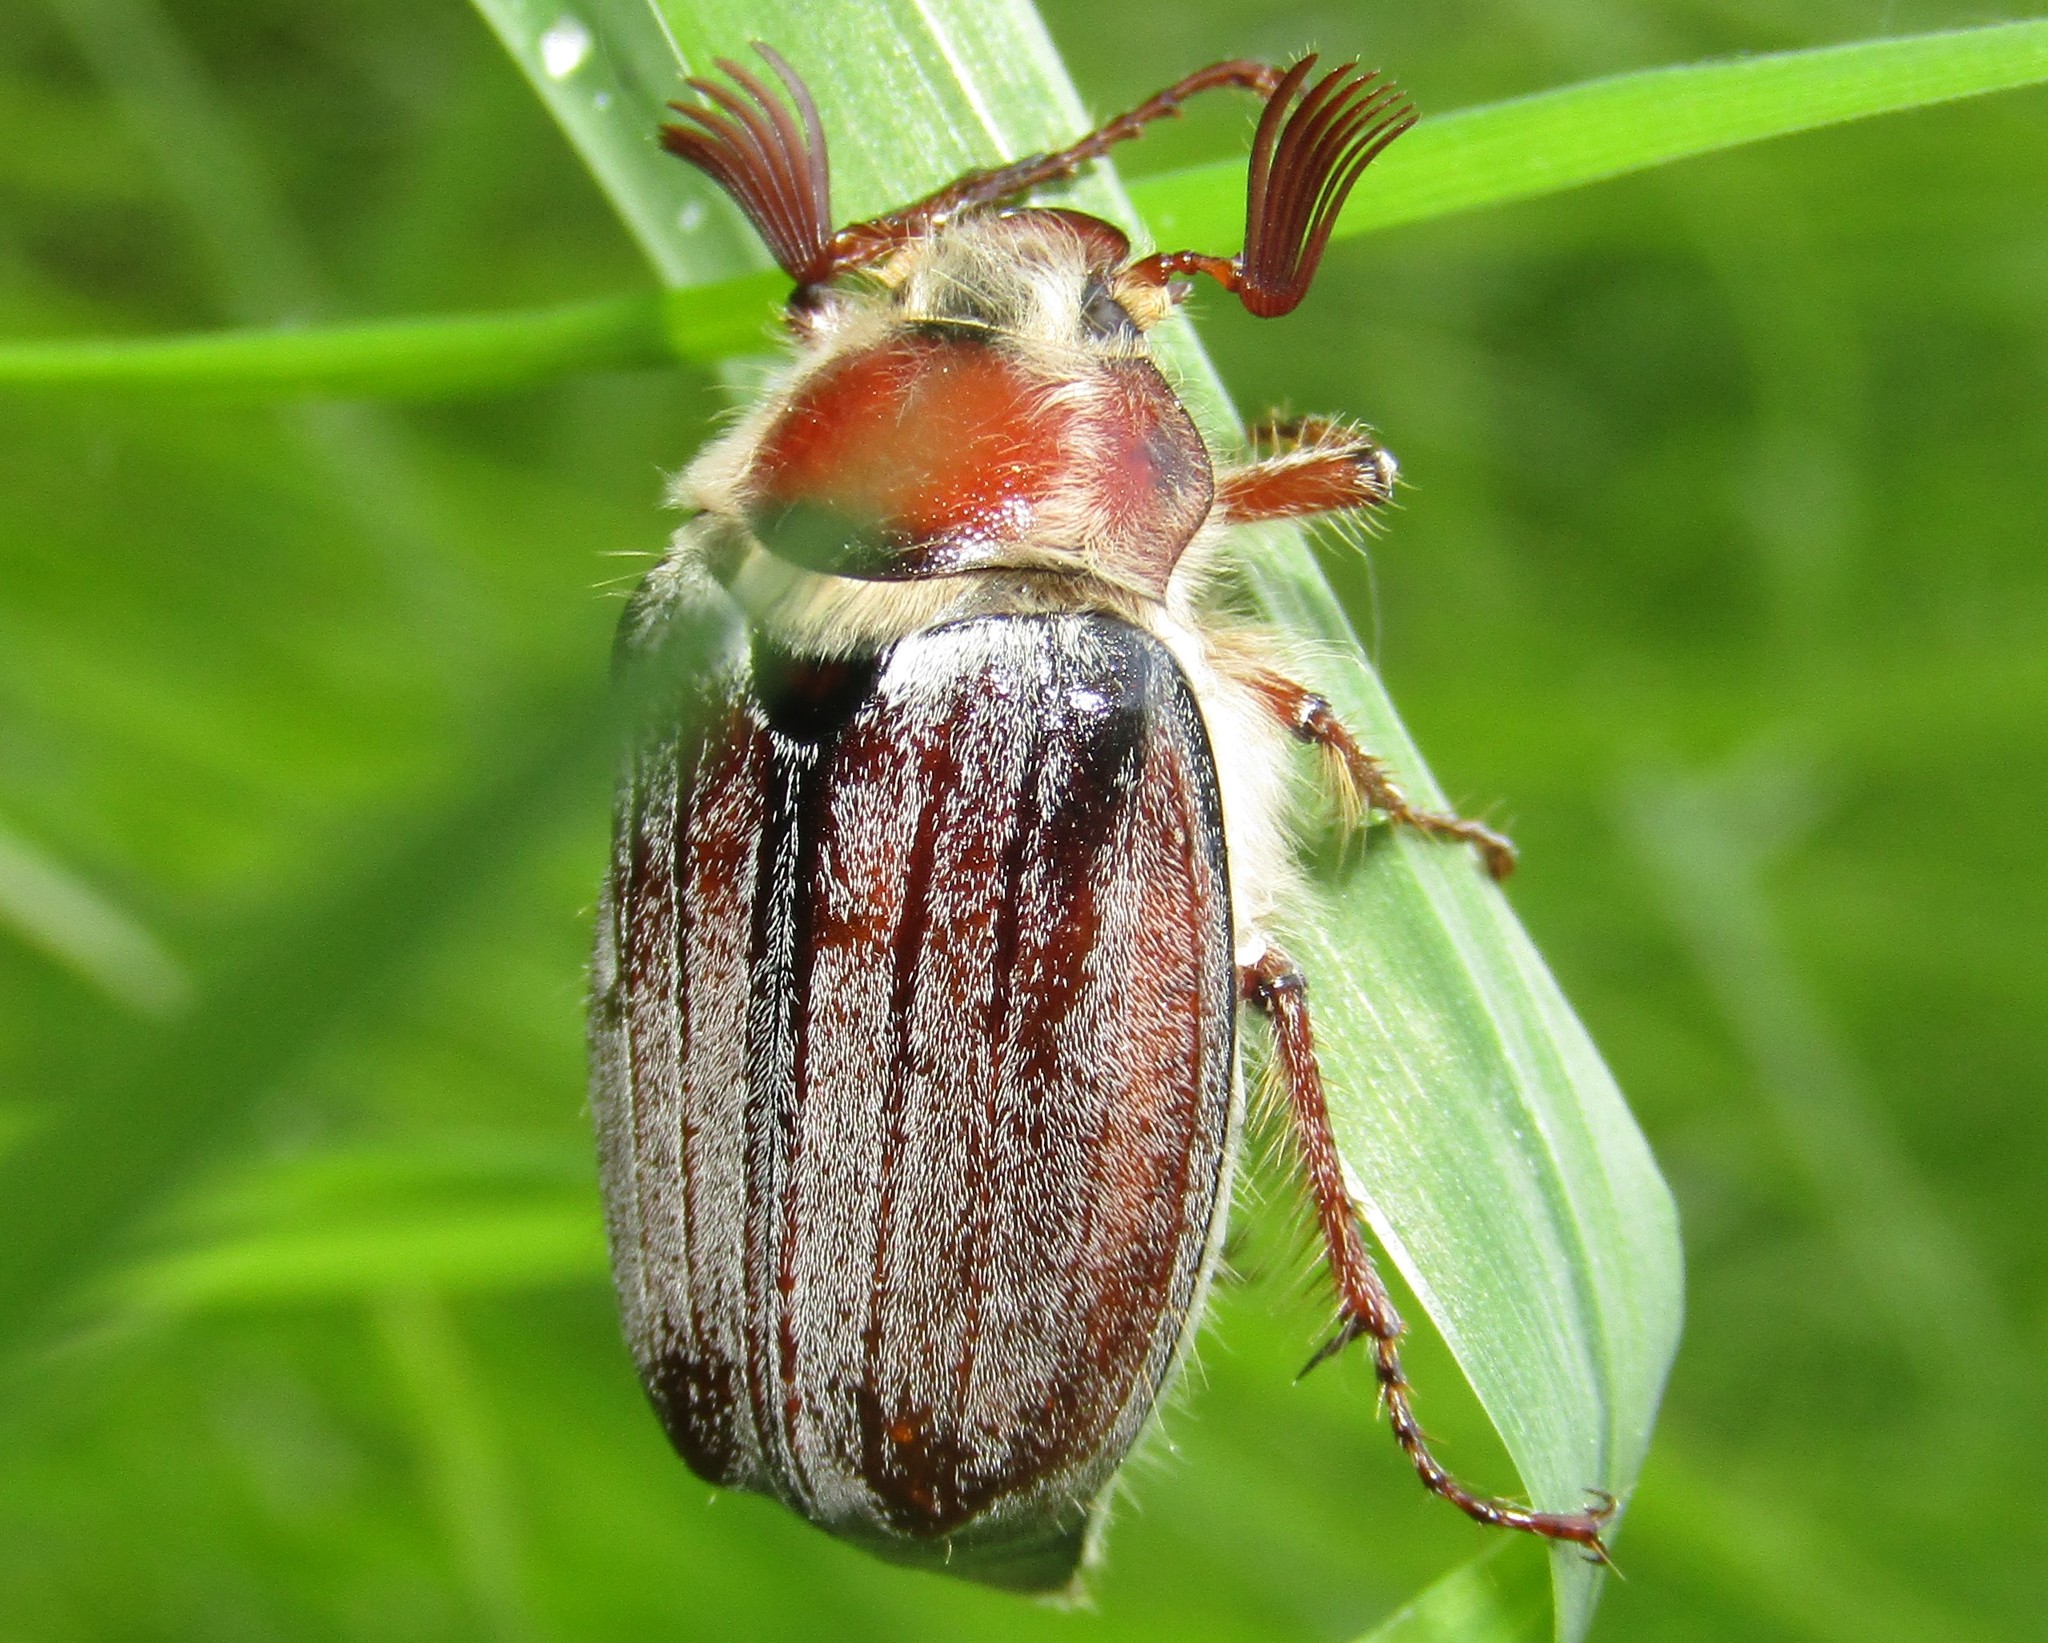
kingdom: Animalia
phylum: Arthropoda
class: Insecta
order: Coleoptera
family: Scarabaeidae
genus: Melolontha
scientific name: Melolontha hippocastani
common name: Chestnut cockchafer
